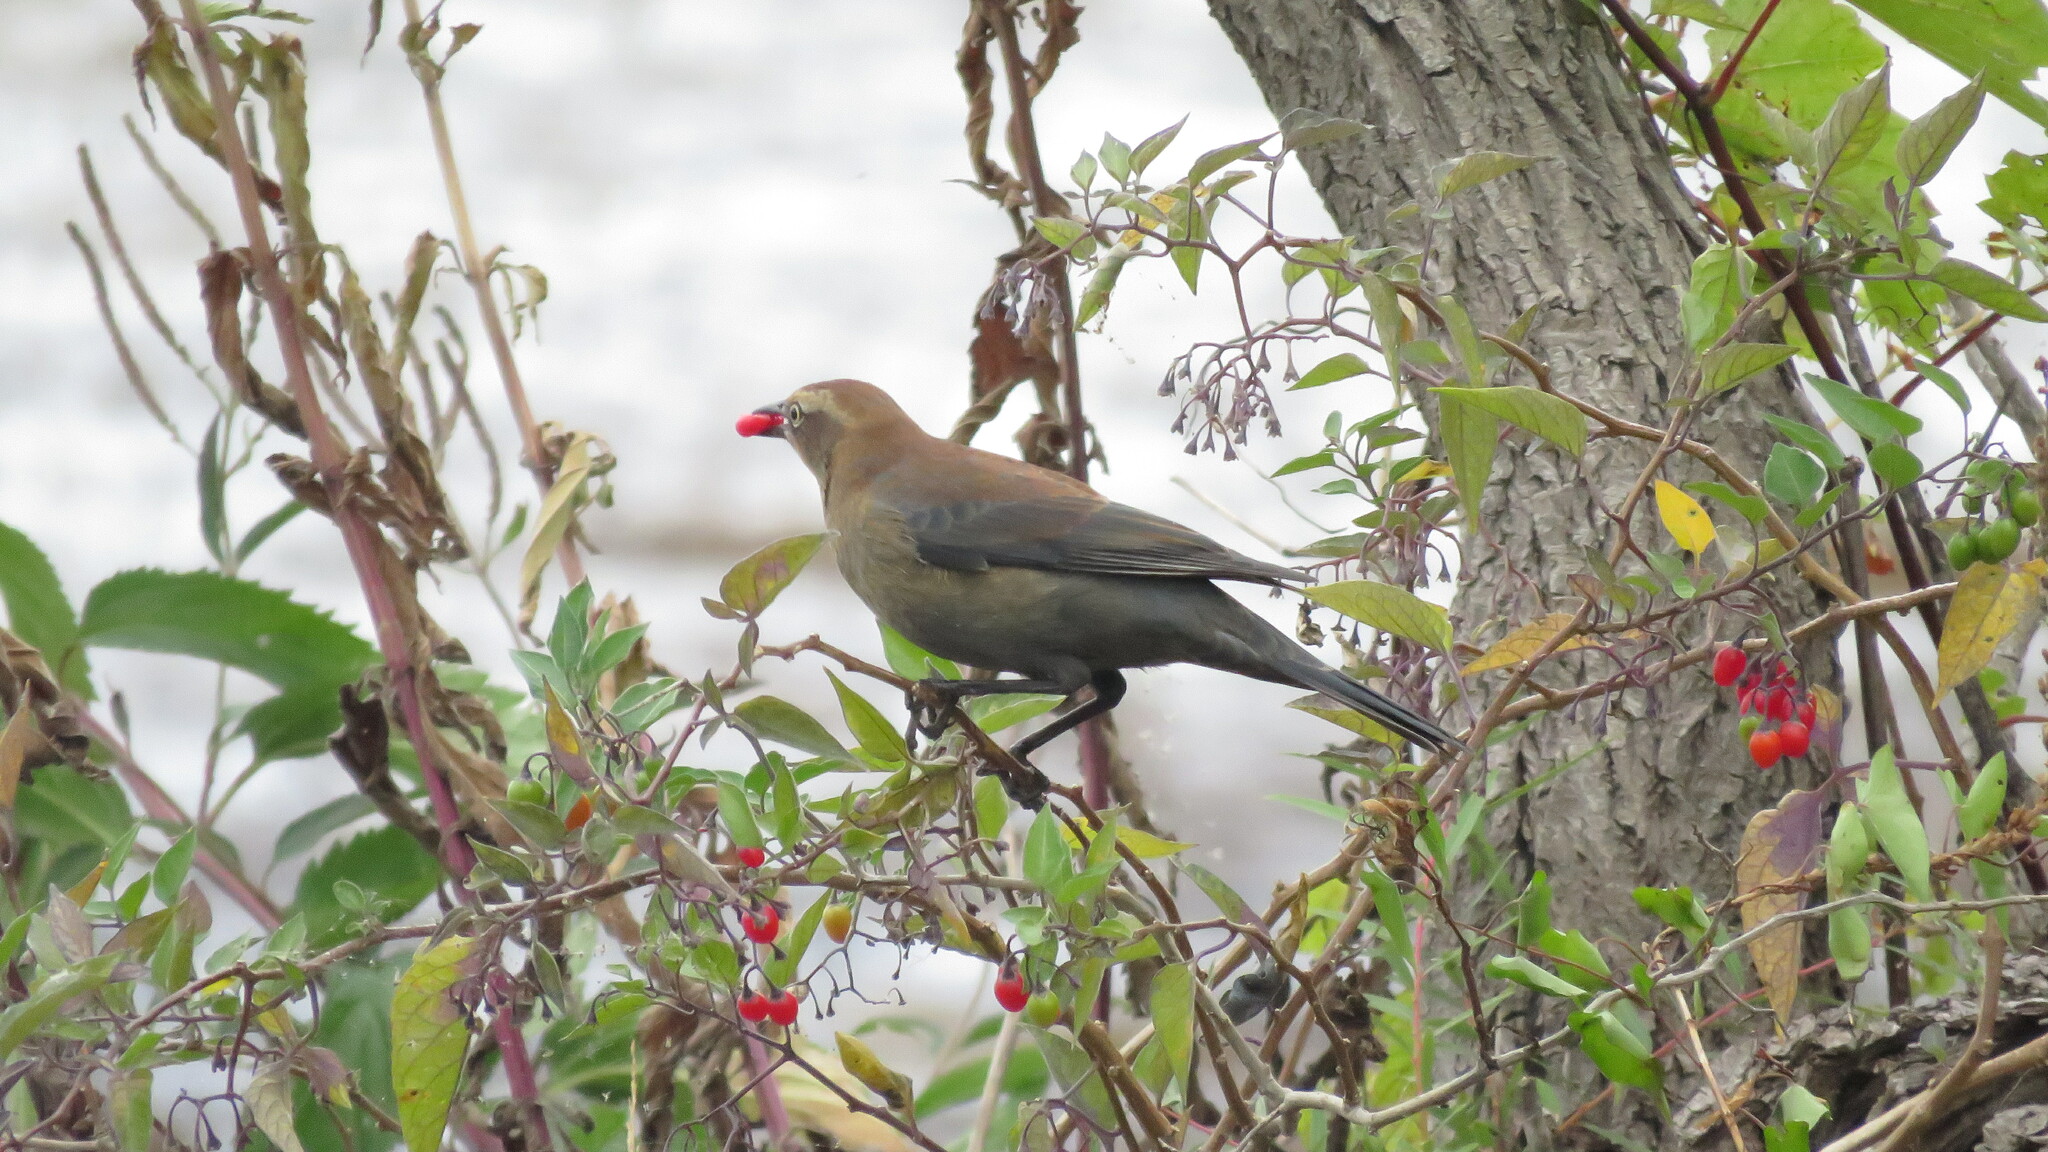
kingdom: Animalia
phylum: Chordata
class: Aves
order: Passeriformes
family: Icteridae
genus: Euphagus
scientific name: Euphagus carolinus
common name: Rusty blackbird
